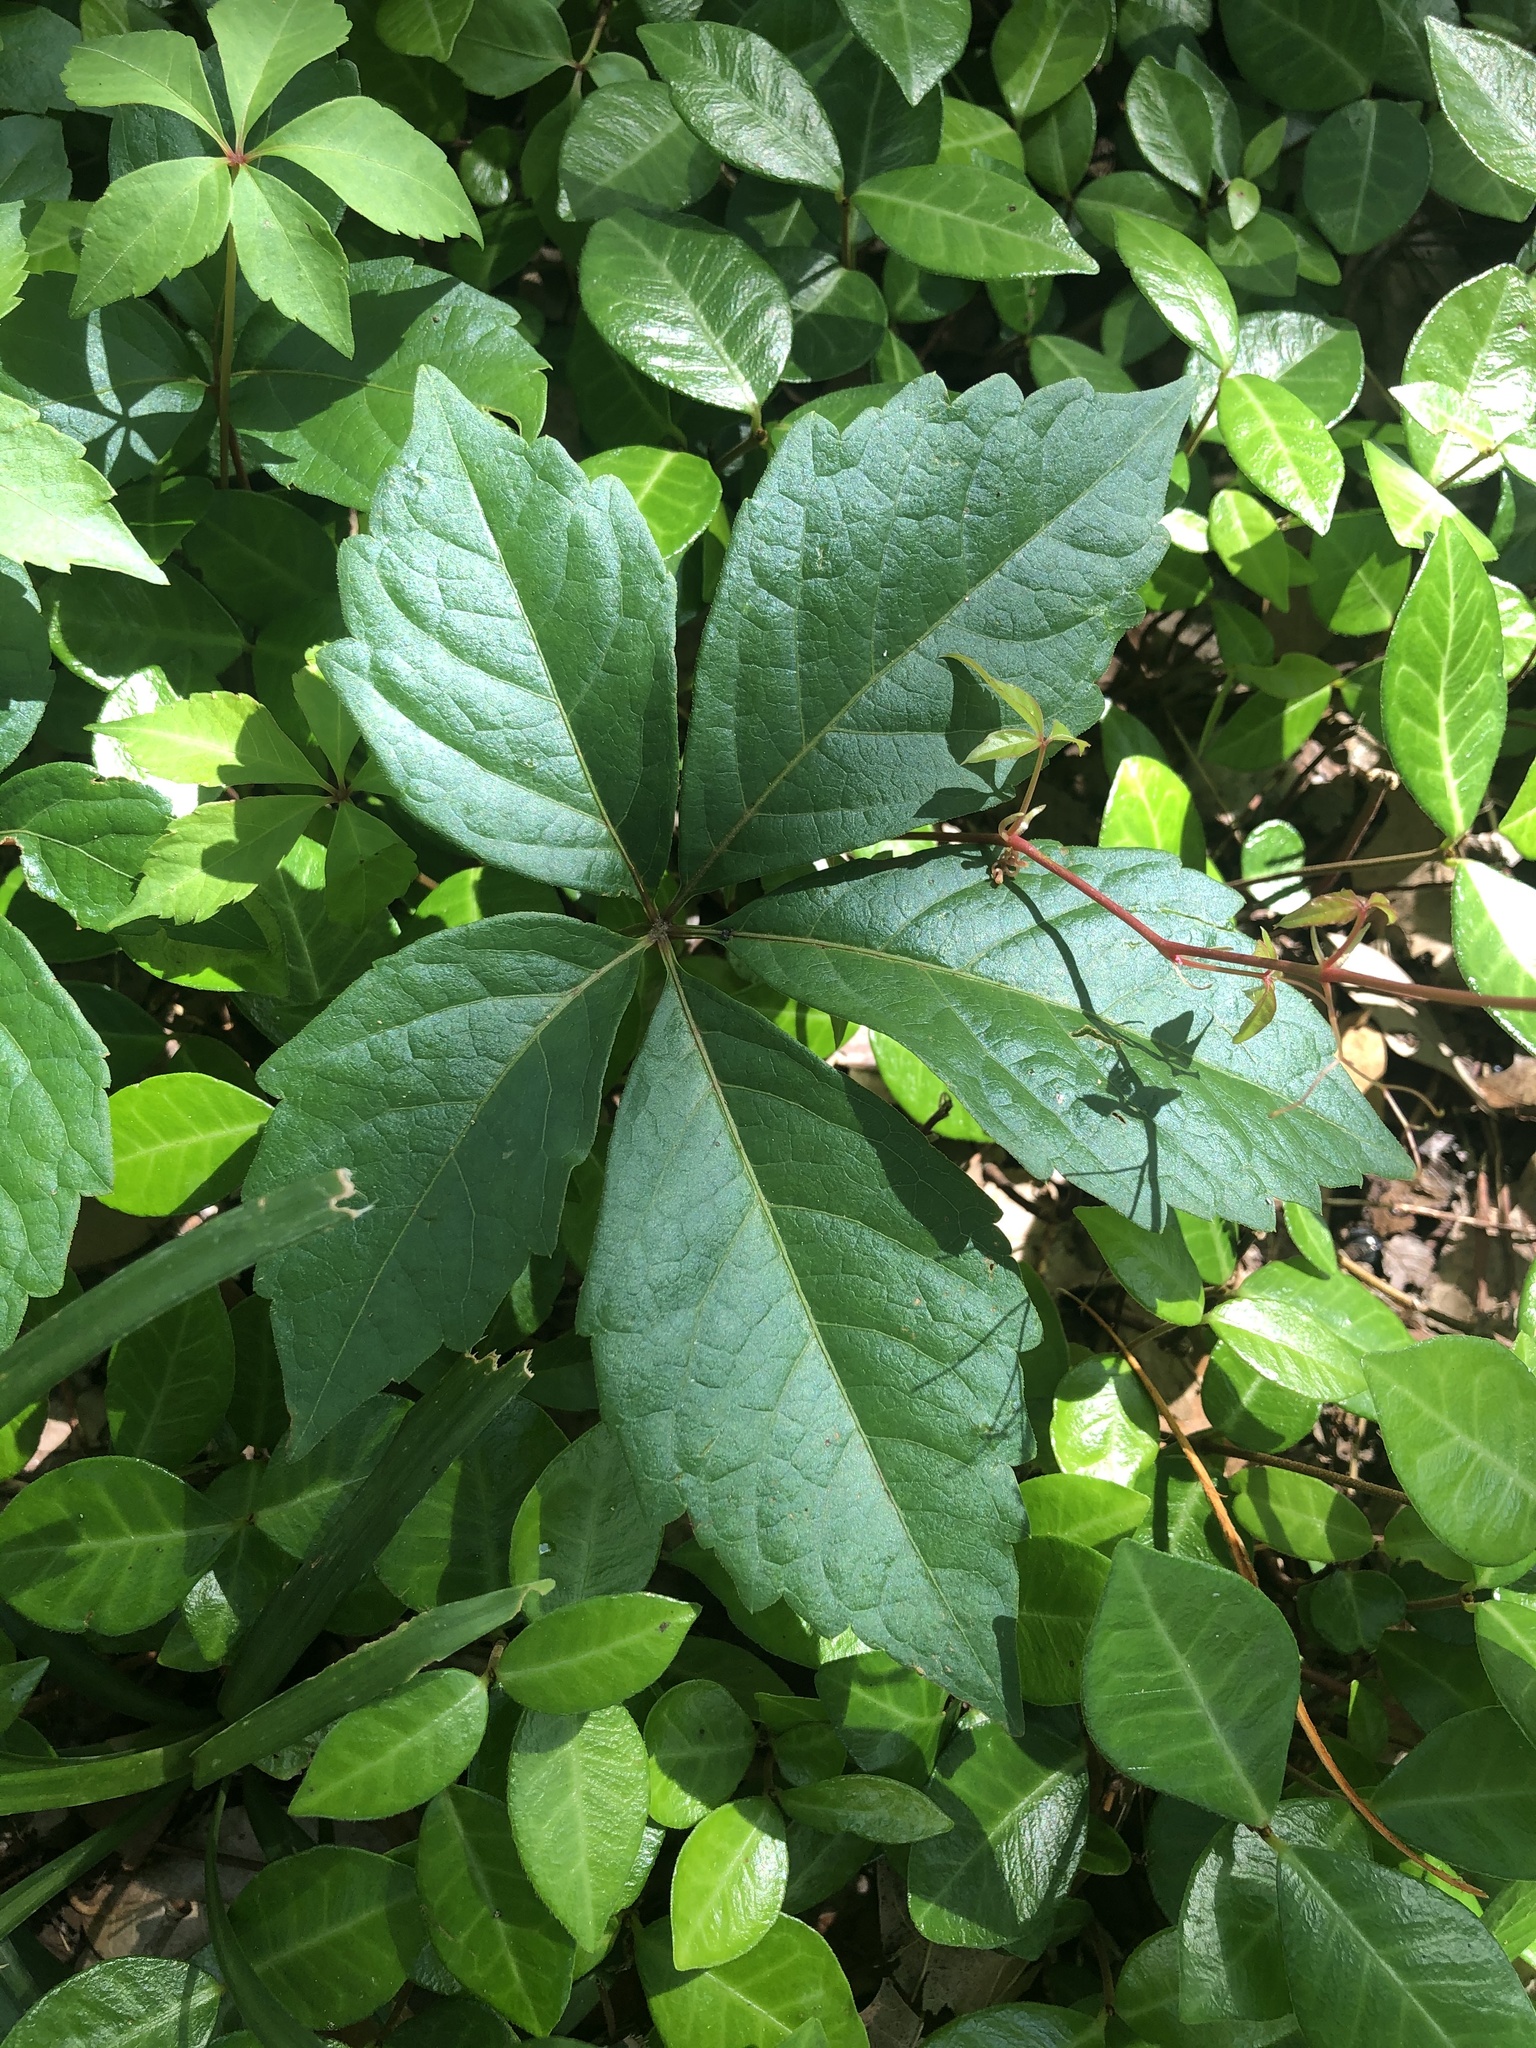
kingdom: Plantae
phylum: Tracheophyta
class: Magnoliopsida
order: Vitales
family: Vitaceae
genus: Parthenocissus
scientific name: Parthenocissus quinquefolia
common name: Virginia-creeper
